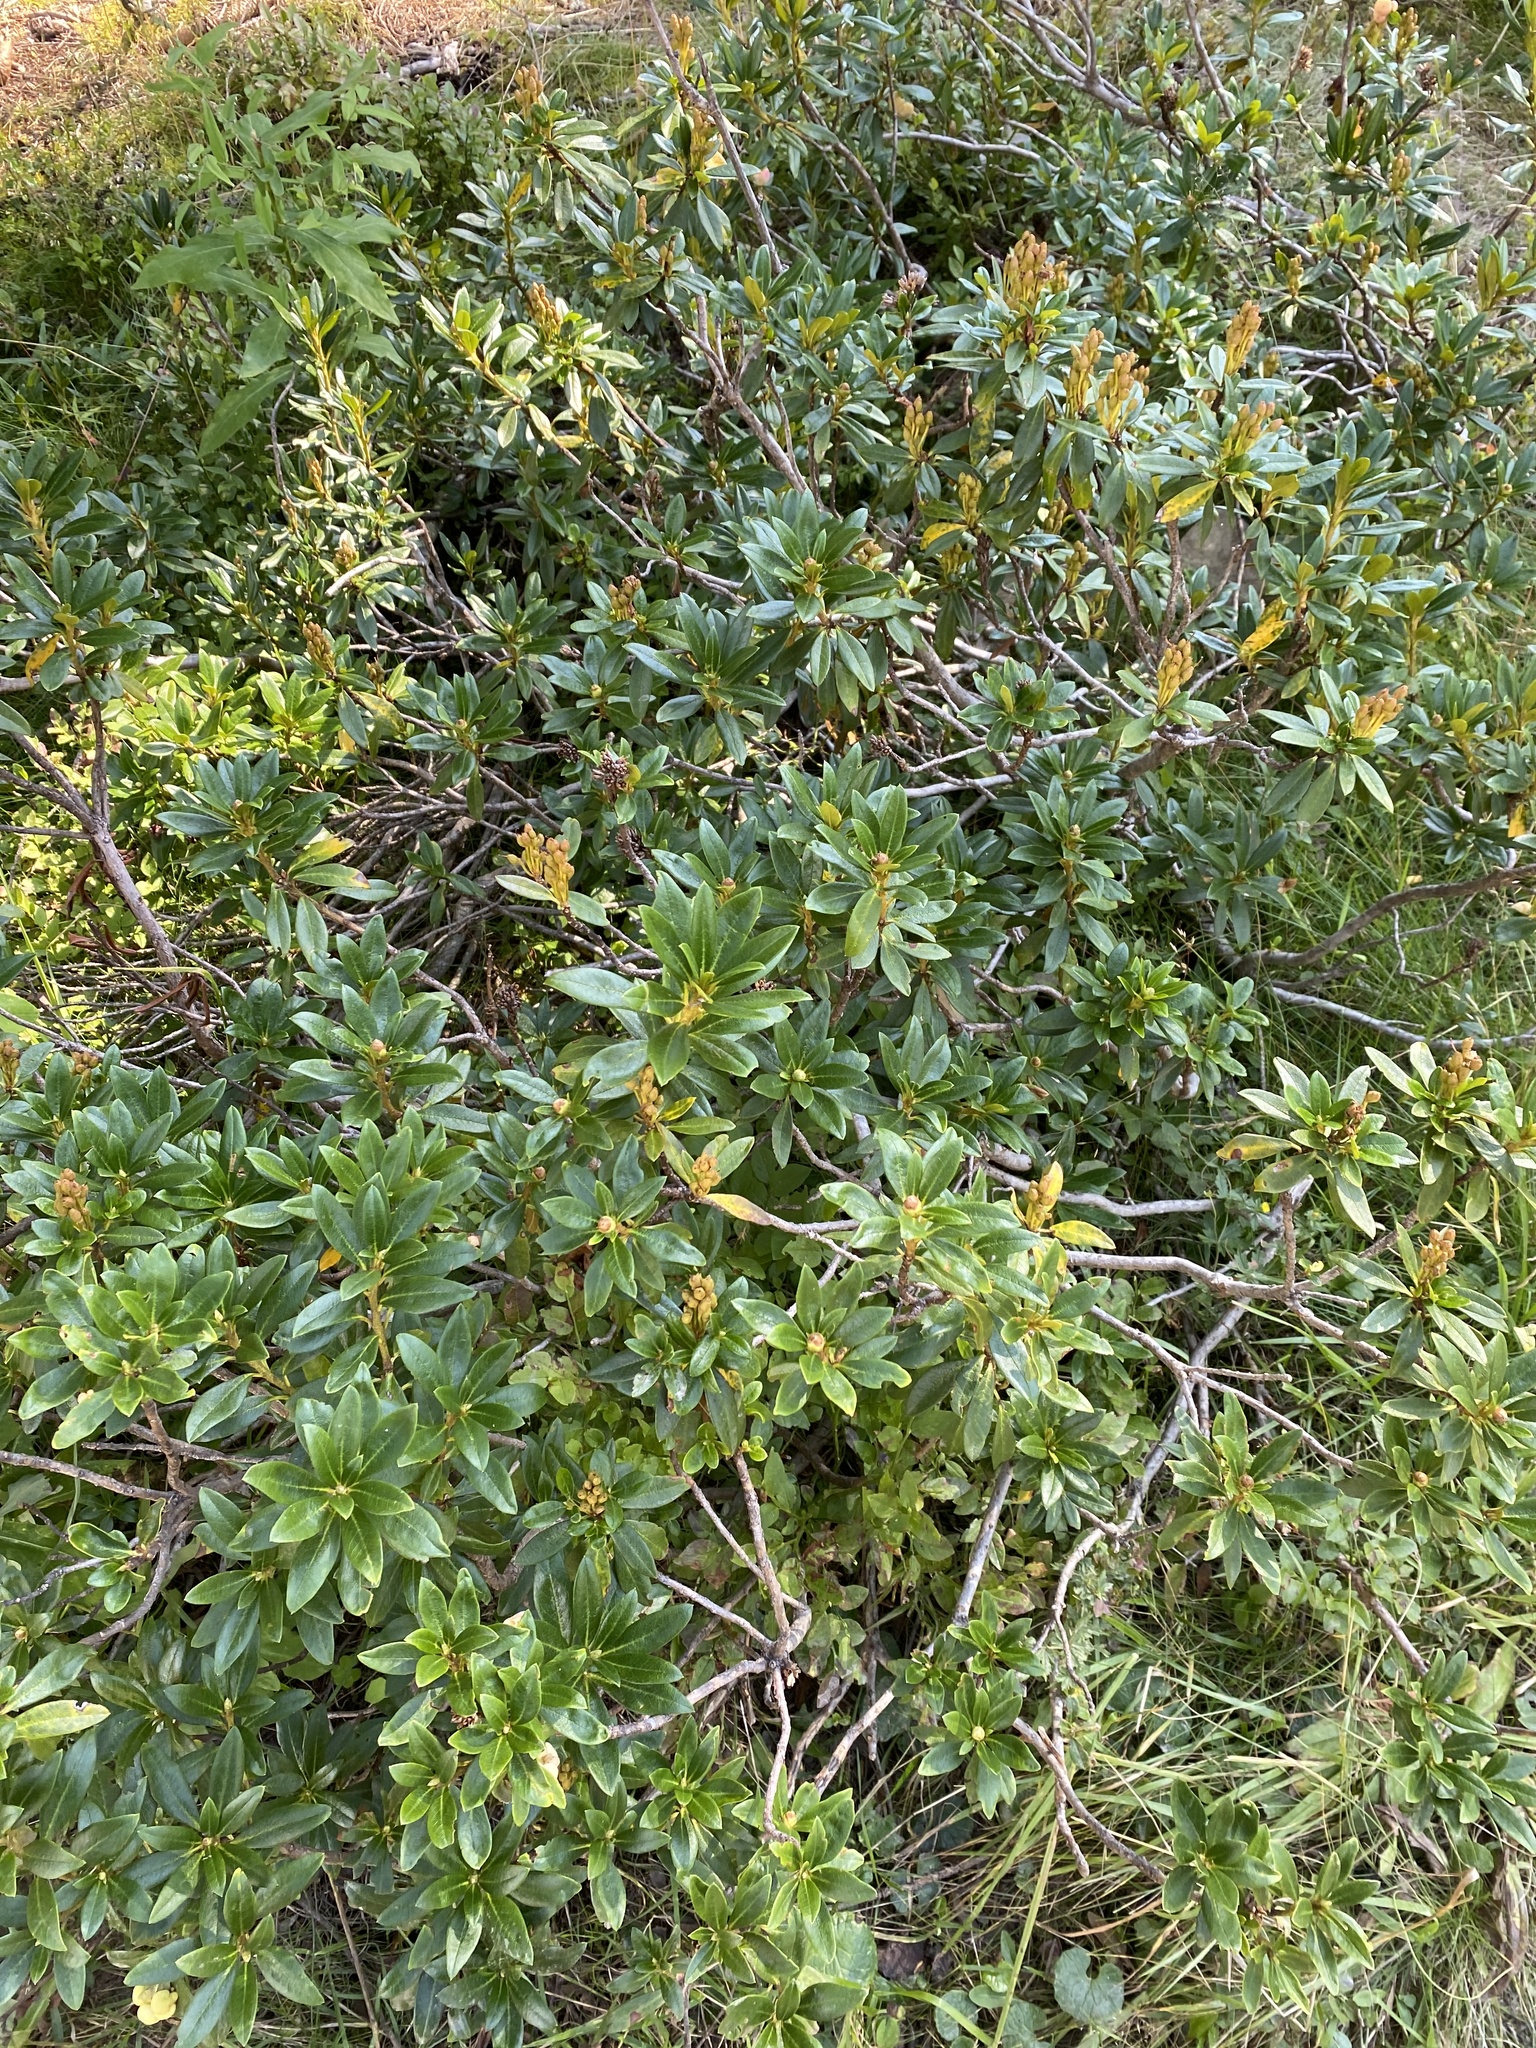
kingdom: Plantae
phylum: Tracheophyta
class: Magnoliopsida
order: Ericales
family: Ericaceae
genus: Rhododendron
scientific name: Rhododendron ferrugineum
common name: Alpenrose
